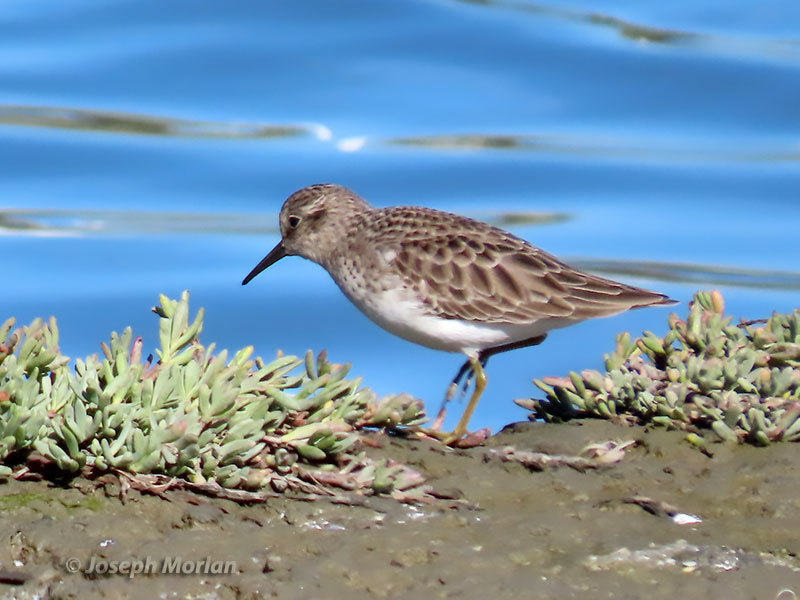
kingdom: Animalia
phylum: Chordata
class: Aves
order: Charadriiformes
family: Scolopacidae
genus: Calidris
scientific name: Calidris minutilla
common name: Least sandpiper
